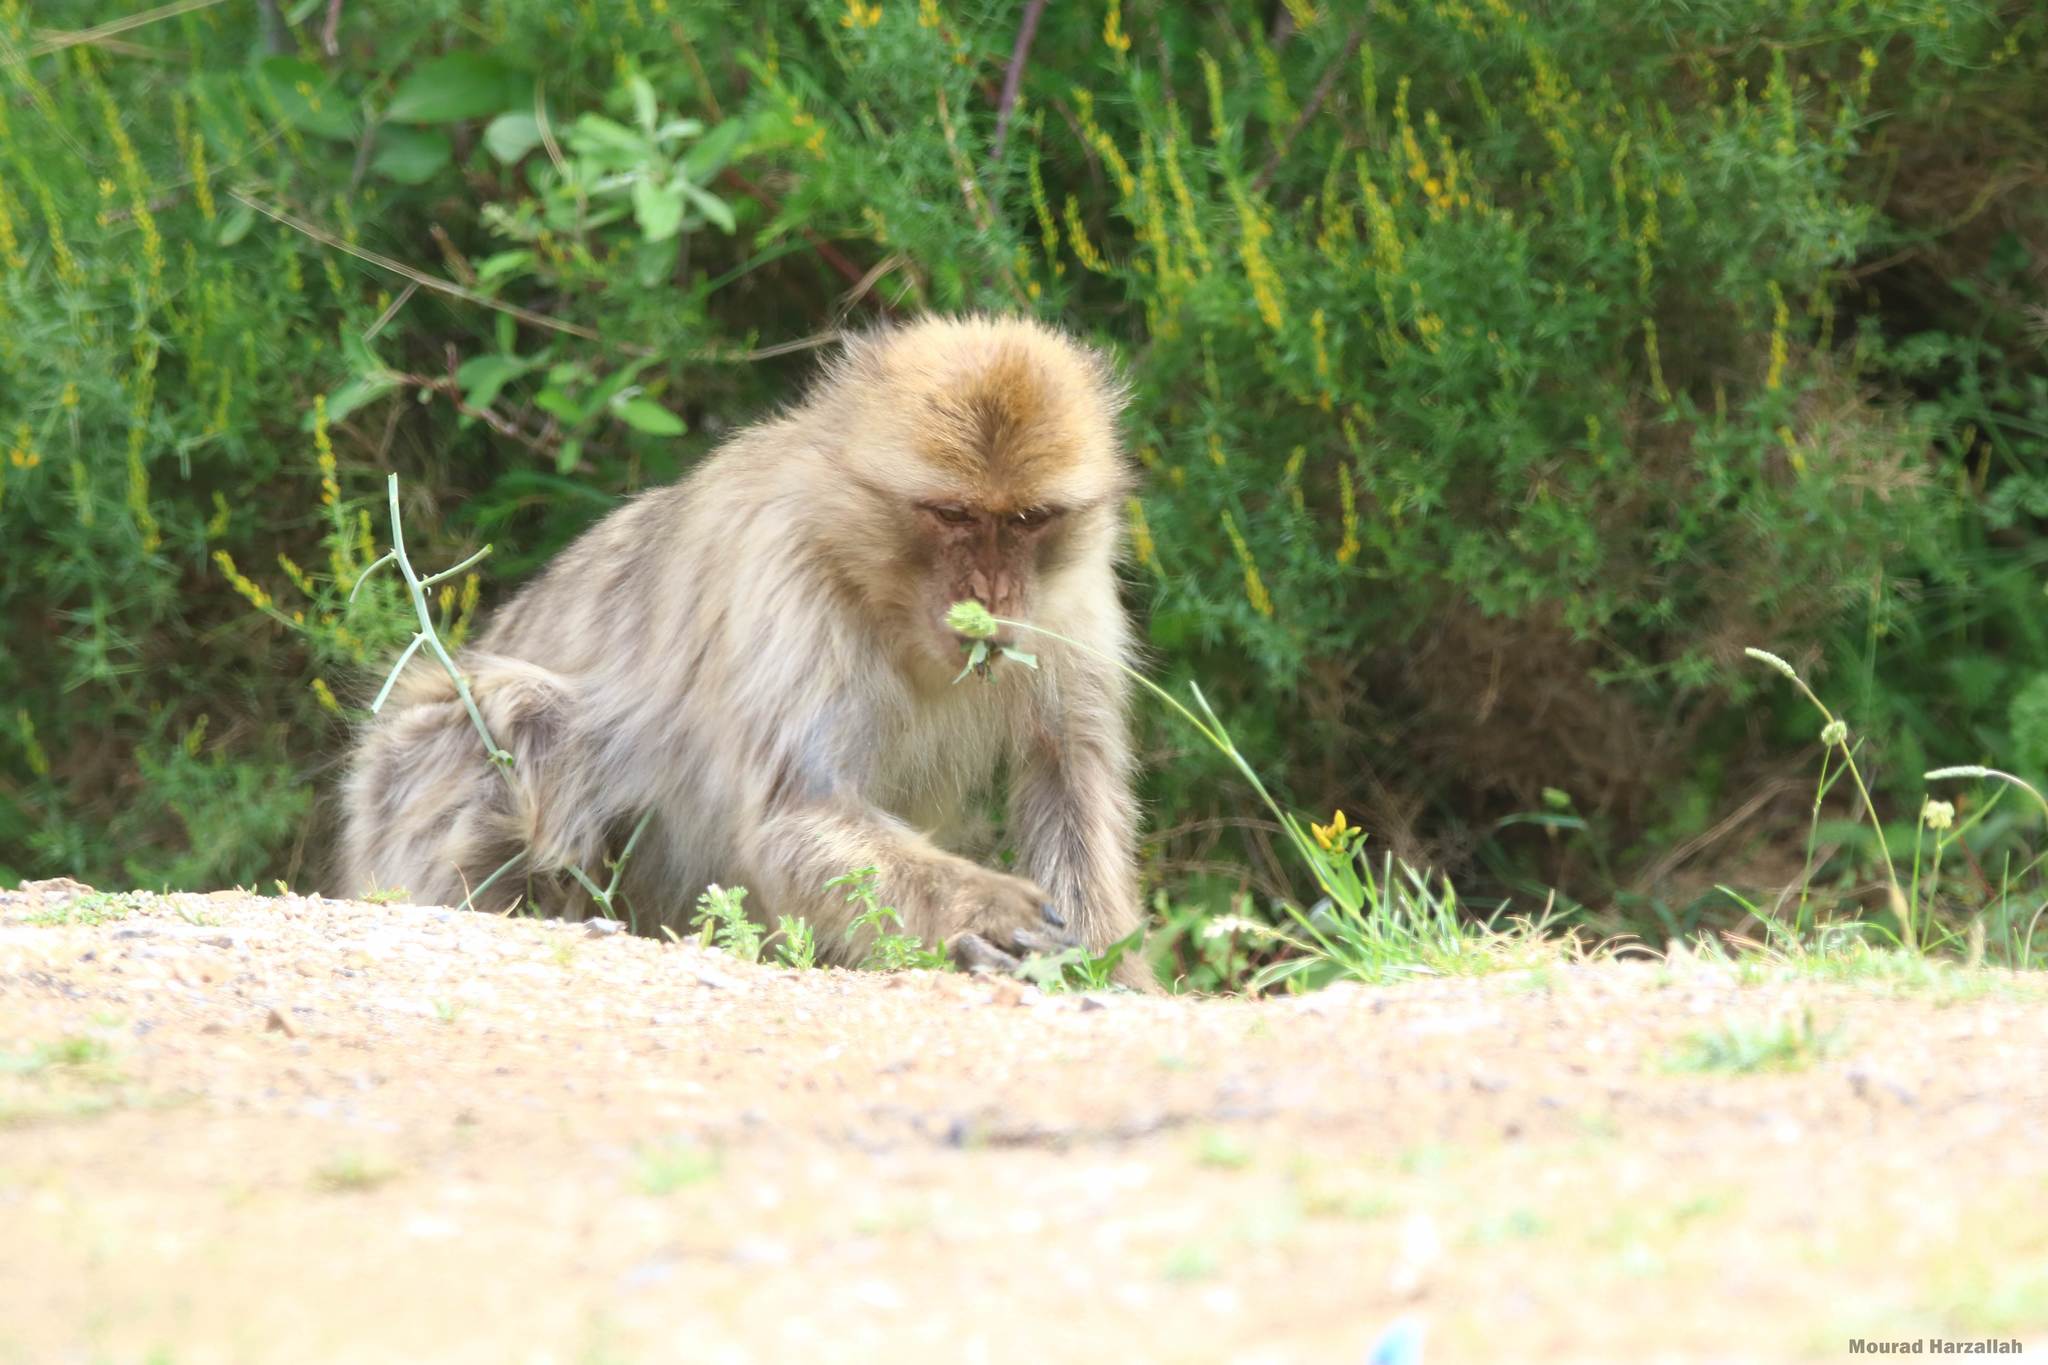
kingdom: Animalia
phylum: Chordata
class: Mammalia
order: Primates
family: Cercopithecidae
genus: Macaca
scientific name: Macaca sylvanus
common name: Barbary macaque
